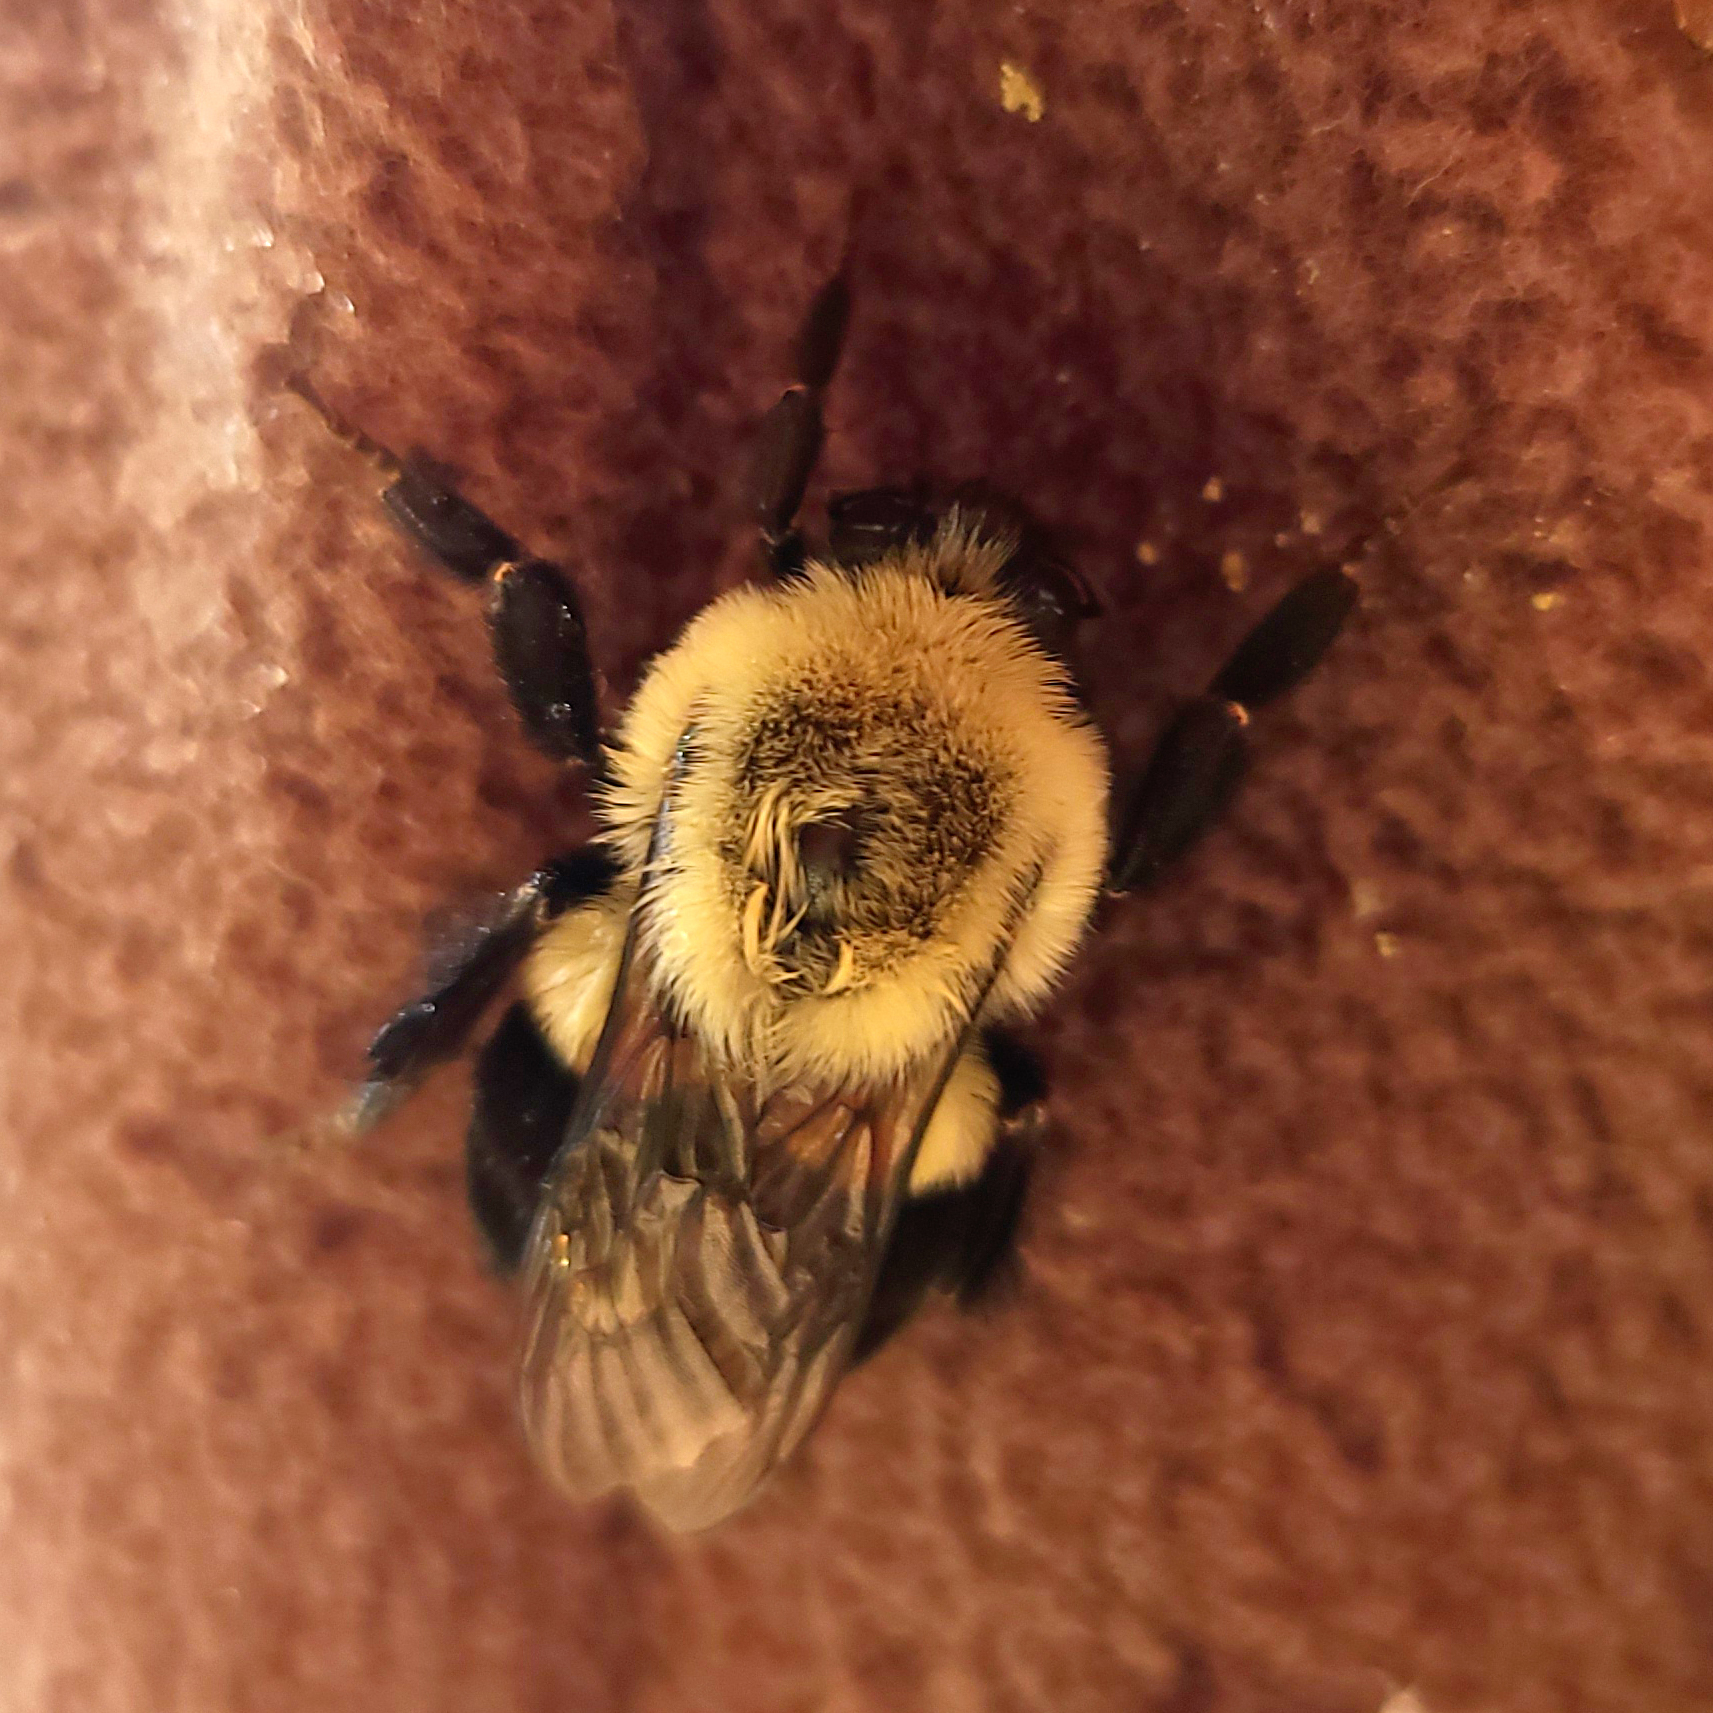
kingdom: Animalia
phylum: Arthropoda
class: Insecta
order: Hymenoptera
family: Apidae
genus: Bombus
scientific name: Bombus impatiens
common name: Common eastern bumble bee
